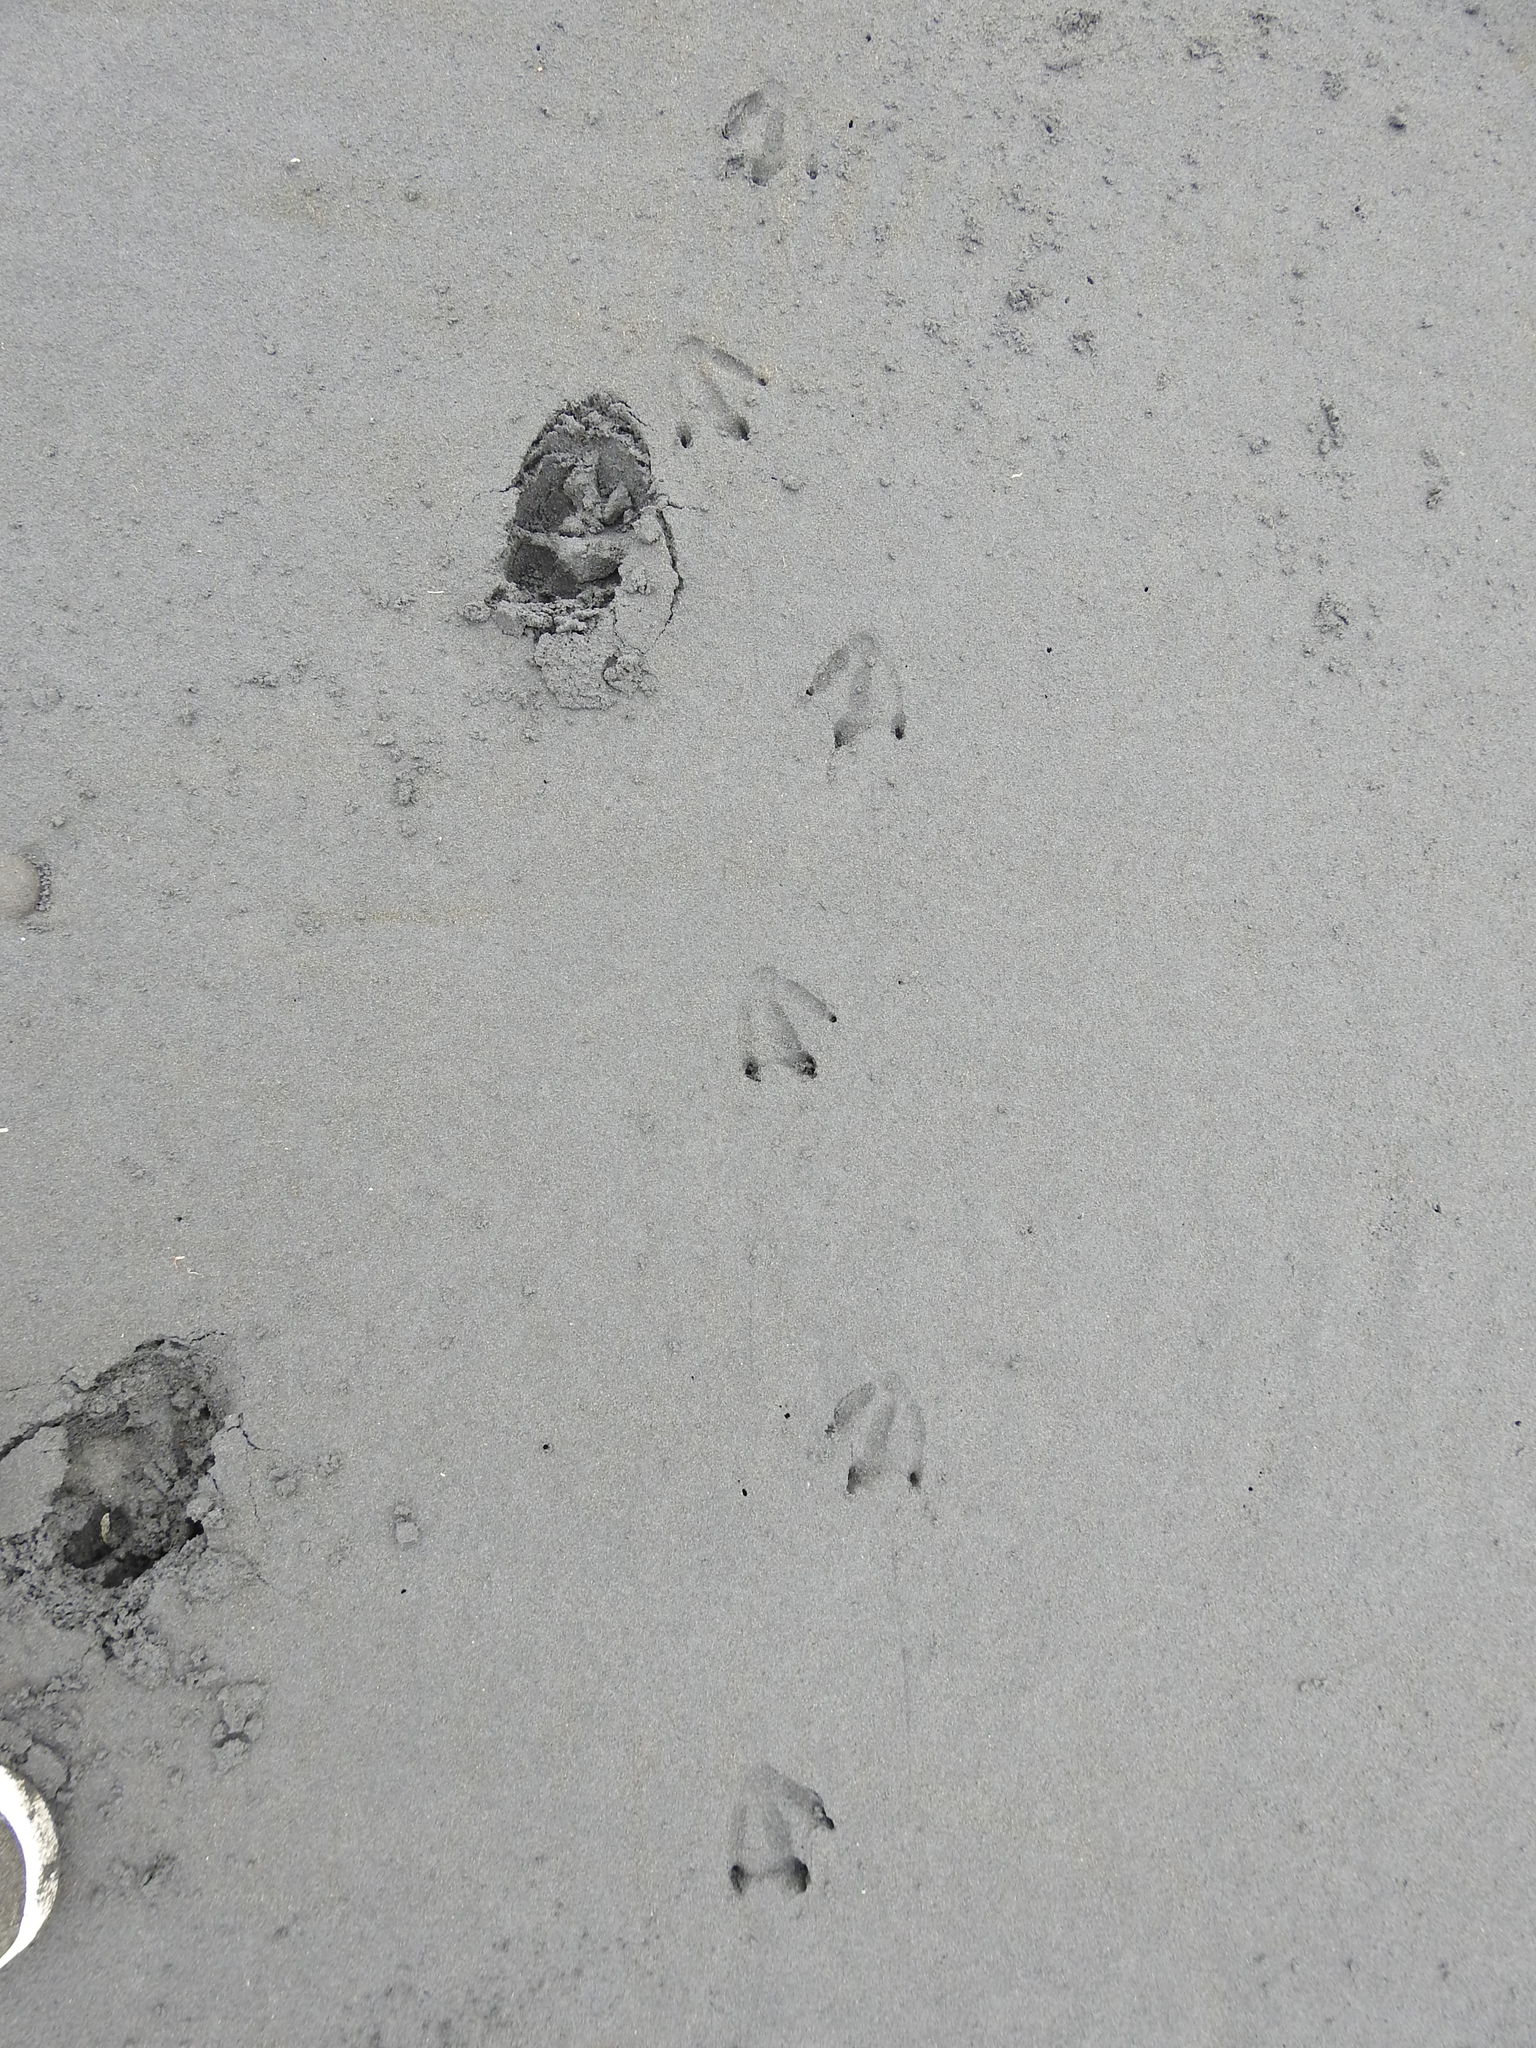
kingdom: Animalia
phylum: Chordata
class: Aves
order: Sphenisciformes
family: Spheniscidae
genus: Eudyptula
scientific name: Eudyptula minor
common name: Little penguin
